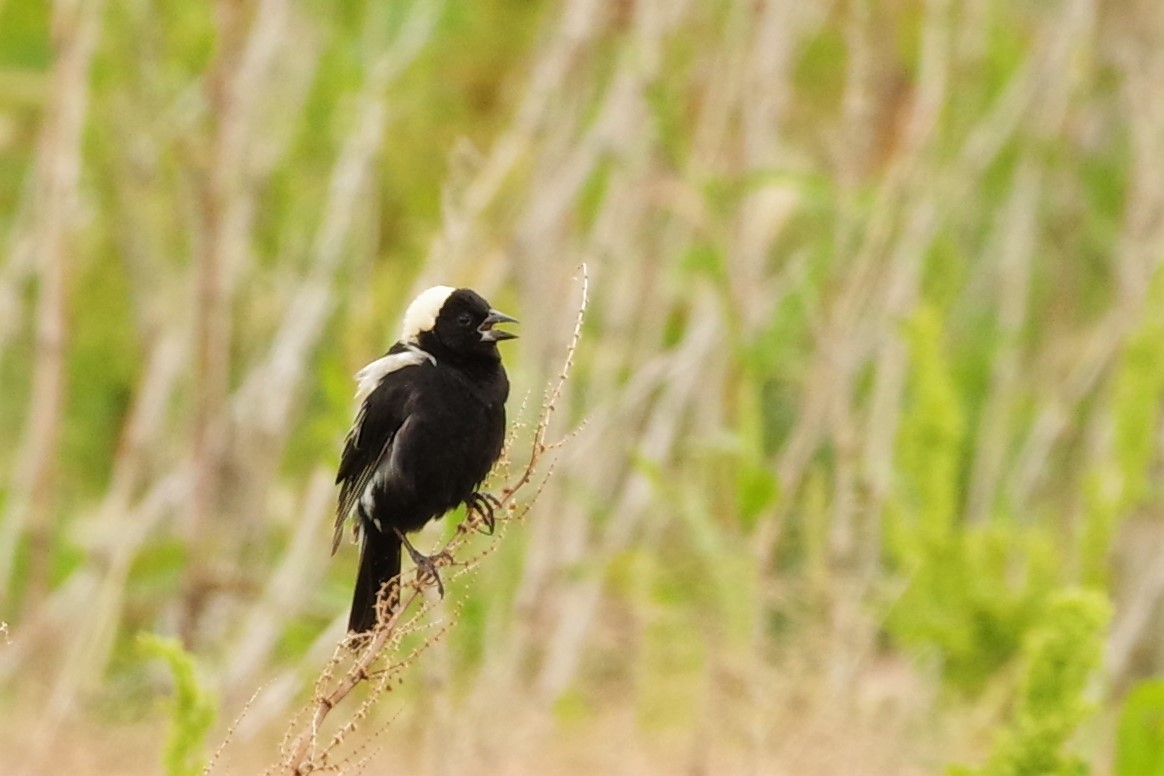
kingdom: Animalia
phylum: Chordata
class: Aves
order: Passeriformes
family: Icteridae
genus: Dolichonyx
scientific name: Dolichonyx oryzivorus
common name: Bobolink
